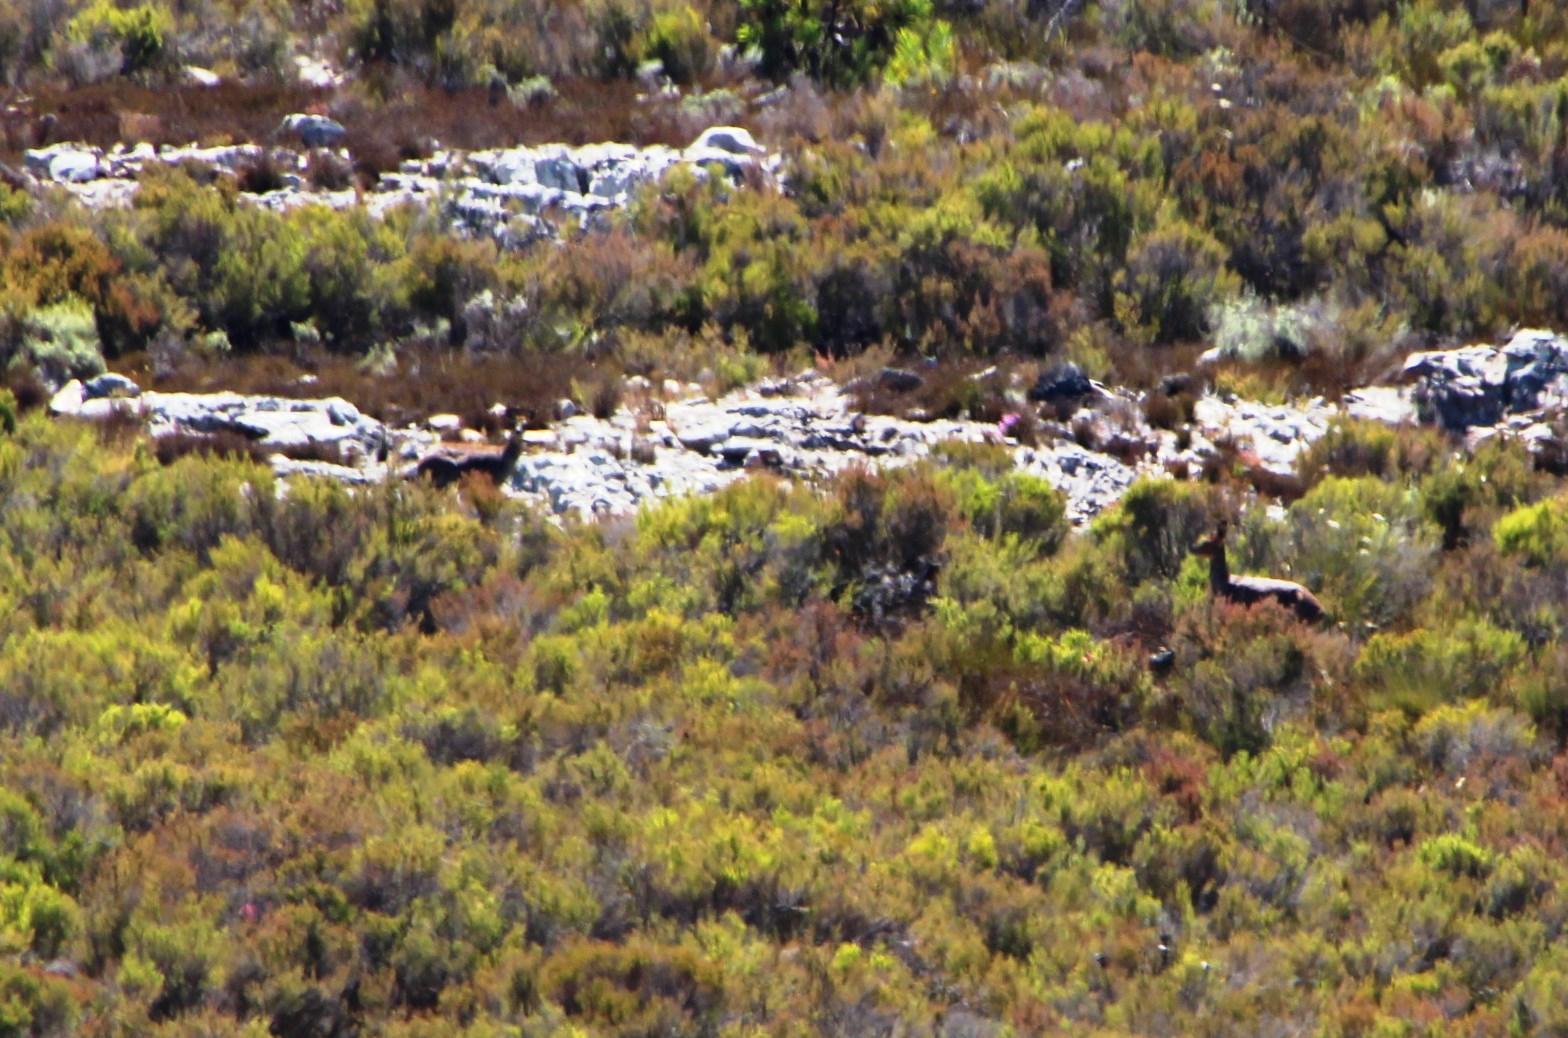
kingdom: Animalia
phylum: Chordata
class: Mammalia
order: Artiodactyla
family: Bovidae
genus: Oreotragus
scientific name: Oreotragus oreotragus
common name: Klipspringer
